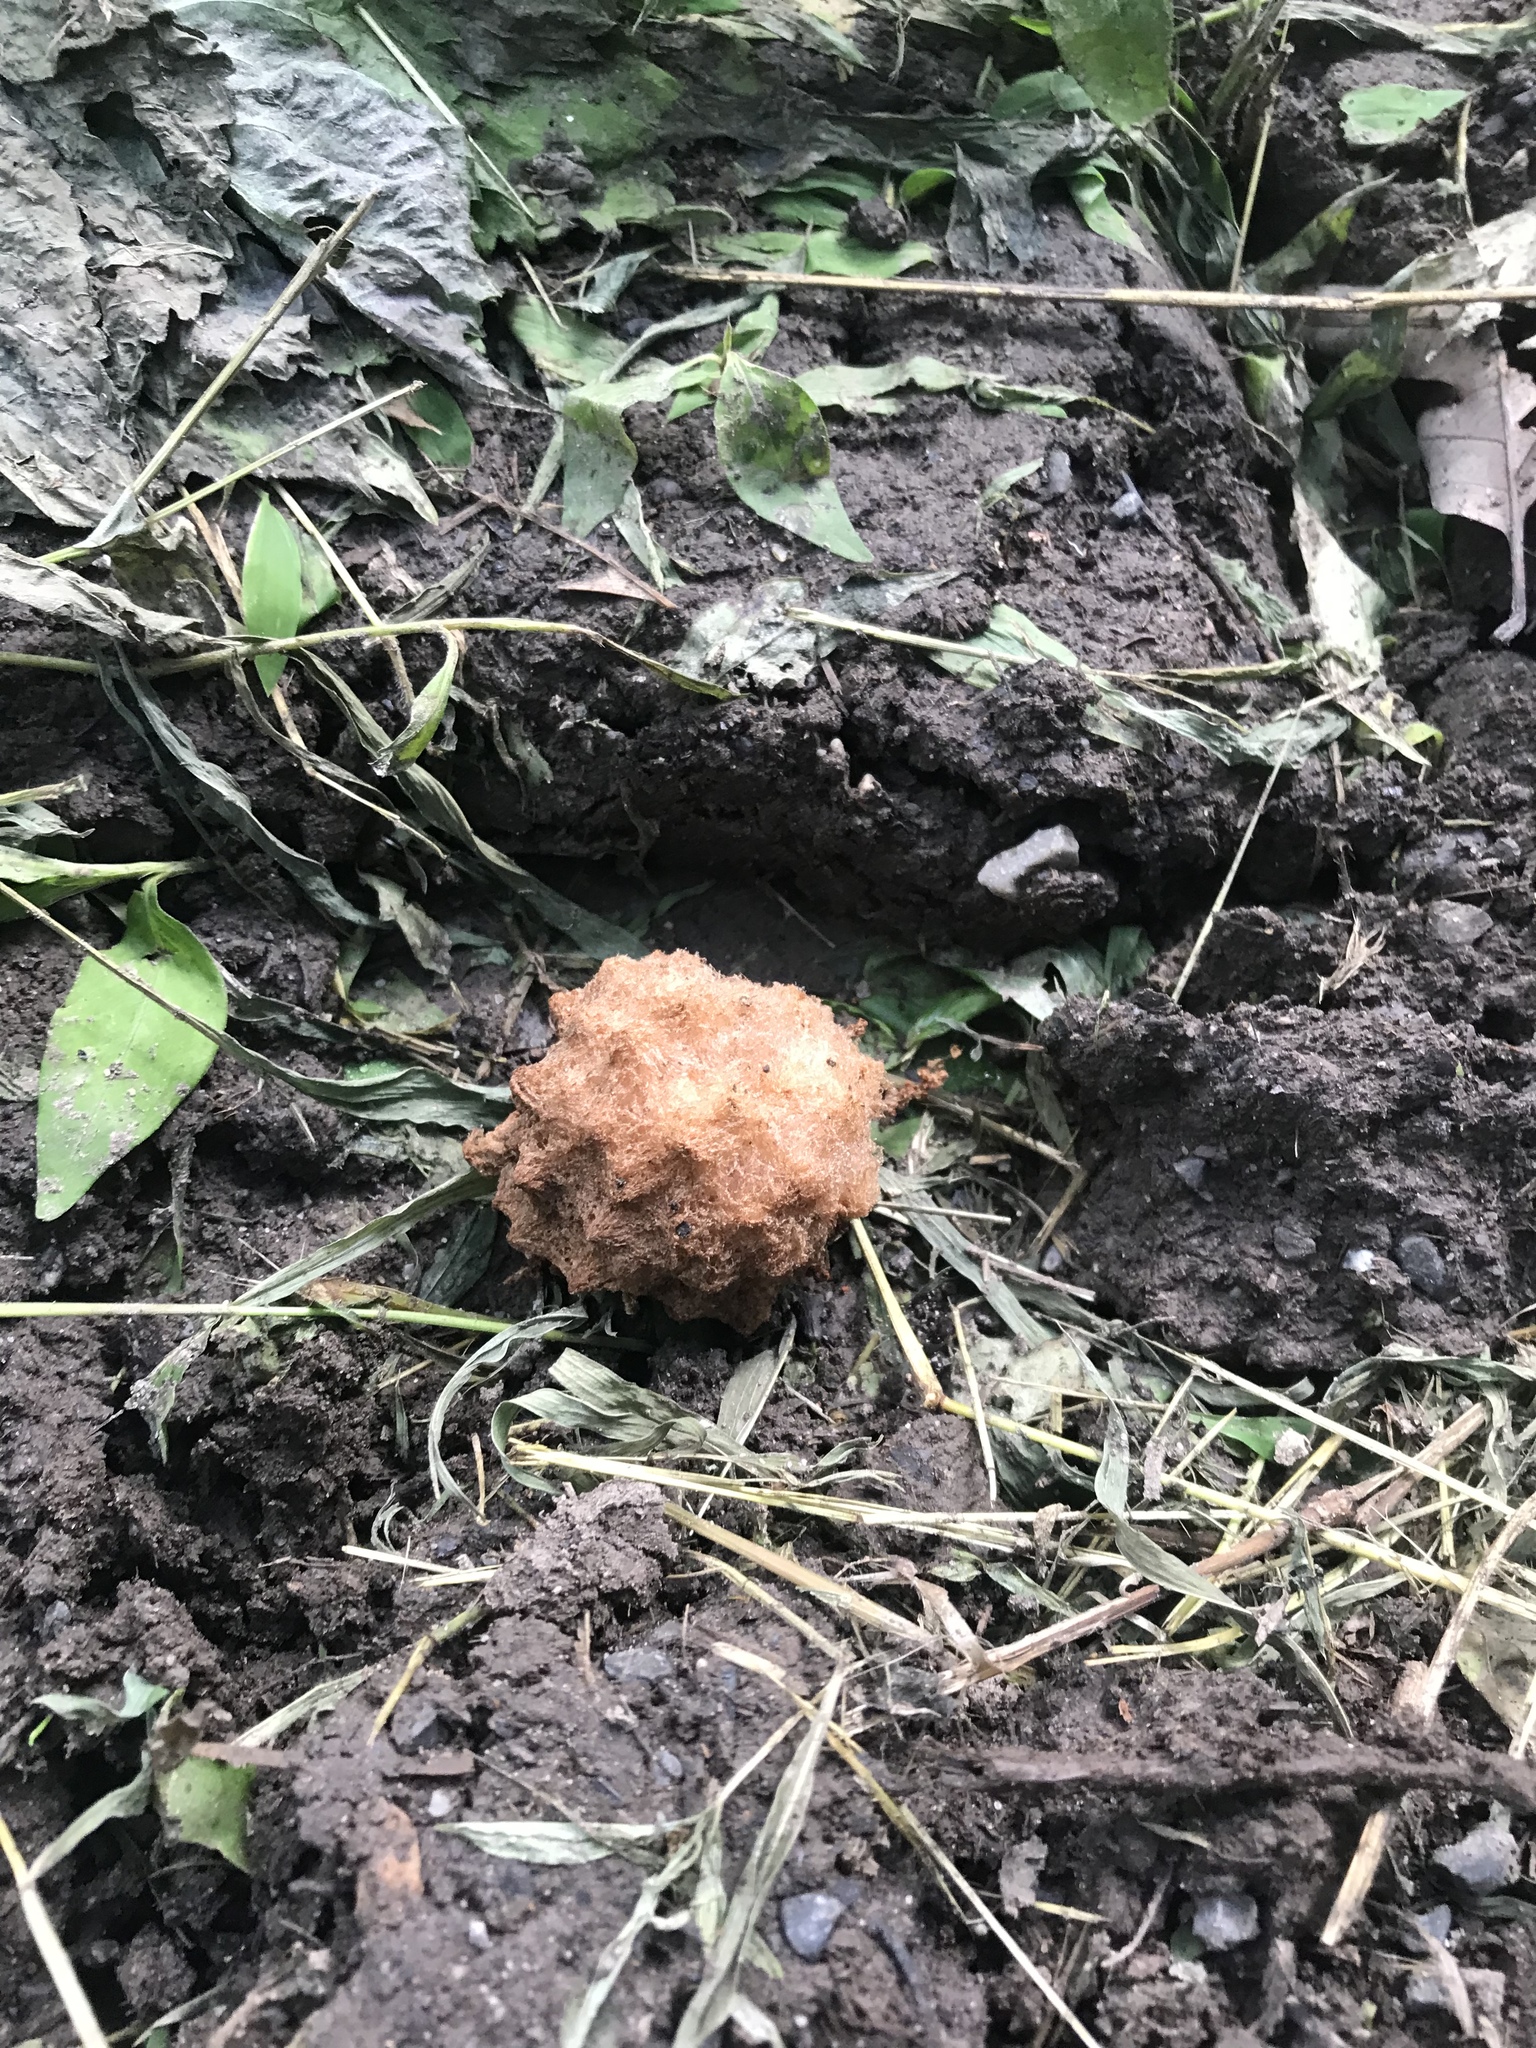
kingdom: Animalia
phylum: Arthropoda
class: Insecta
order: Hymenoptera
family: Cynipidae
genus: Callirhytis
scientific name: Callirhytis
